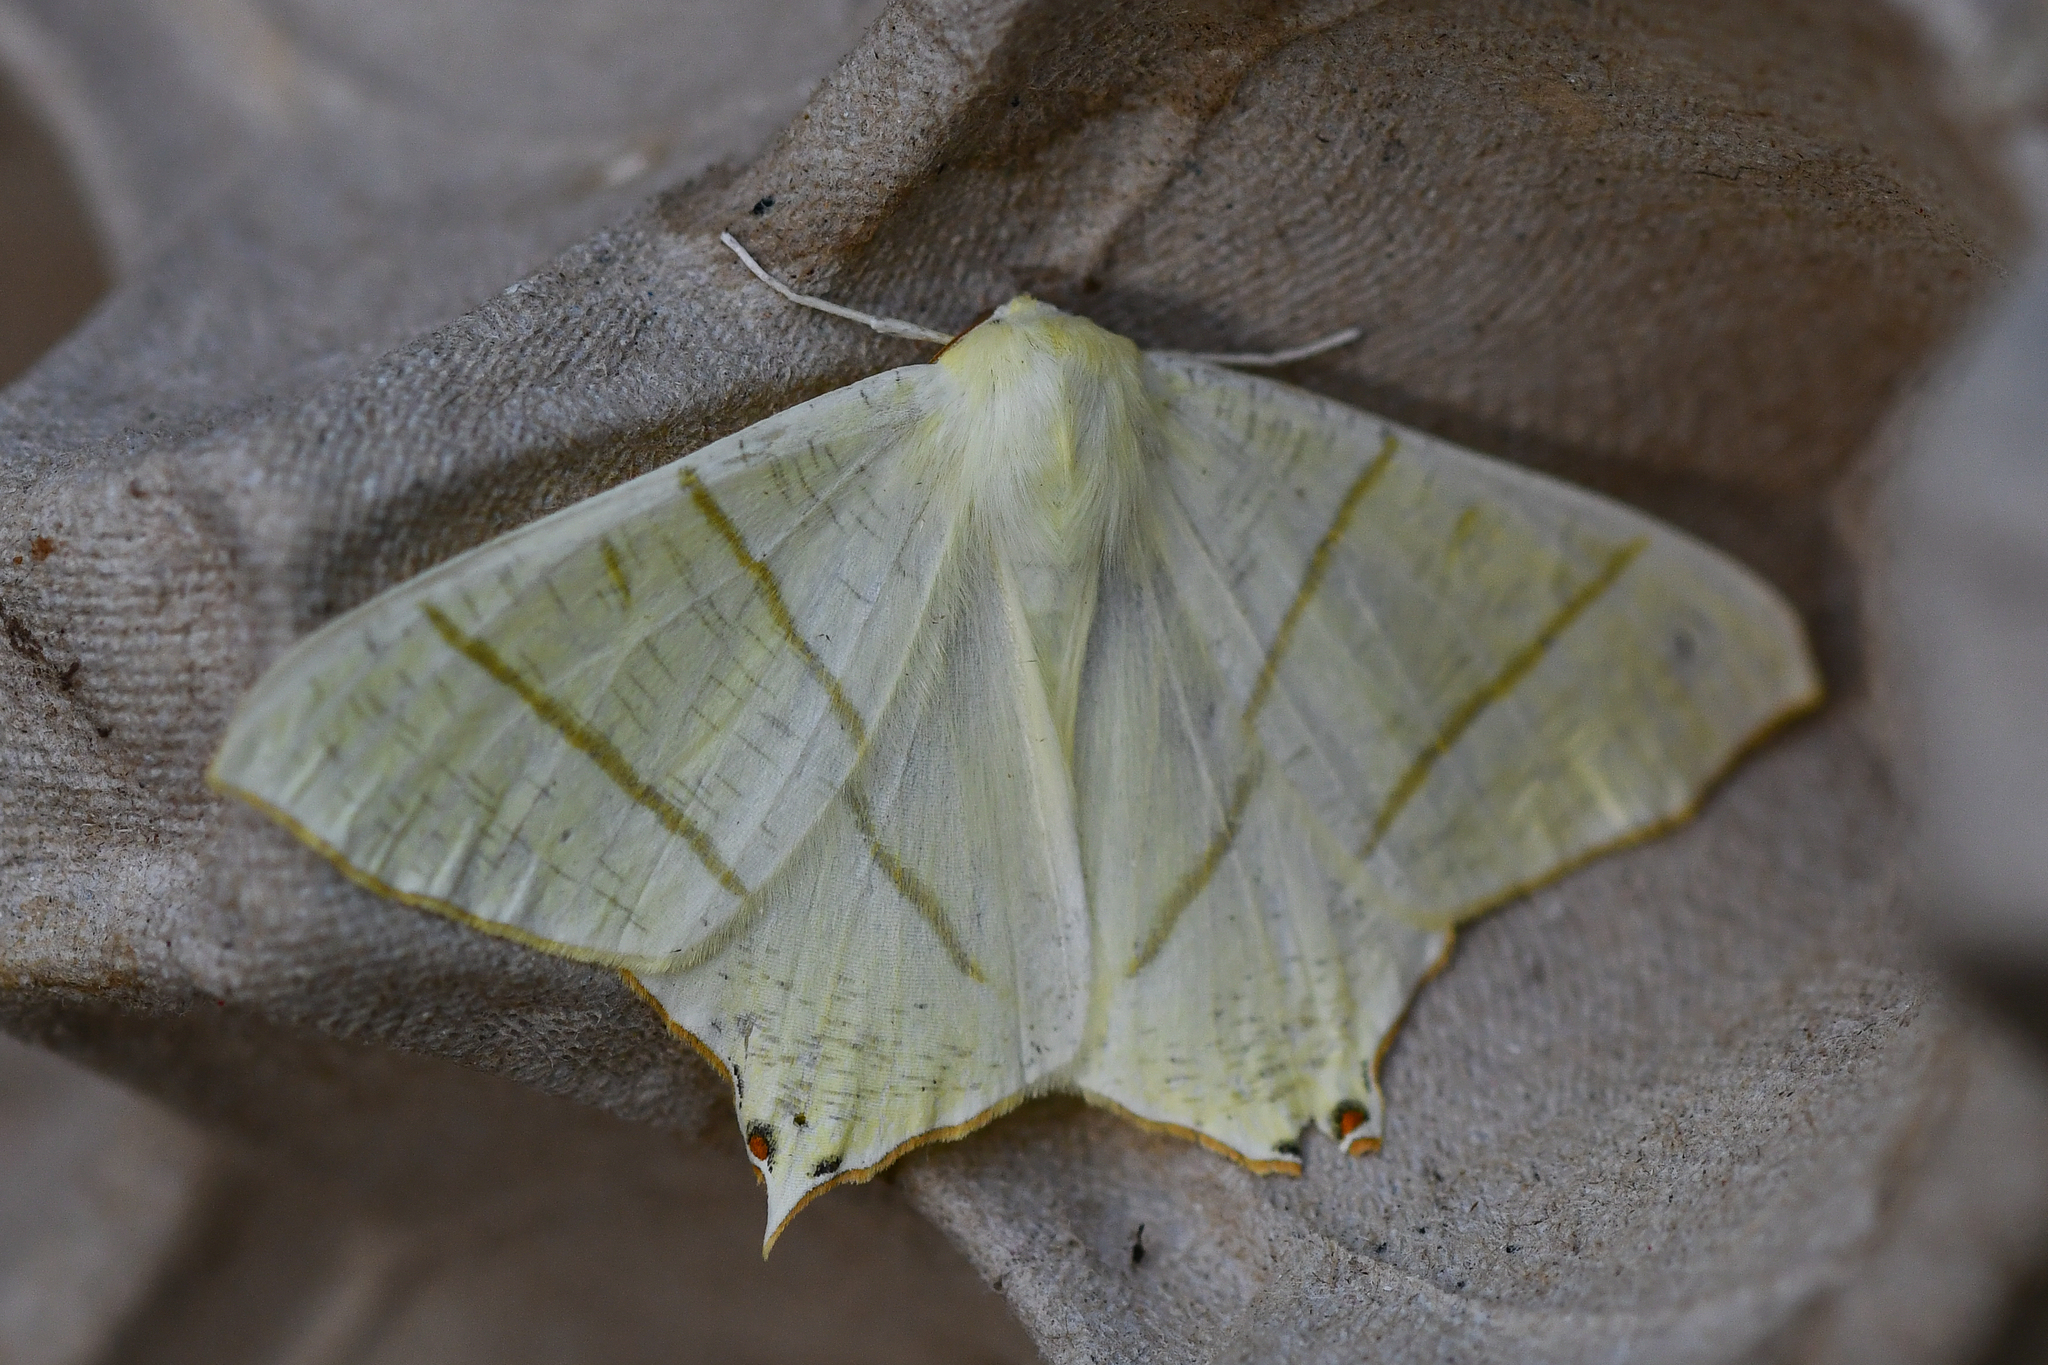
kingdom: Animalia
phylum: Arthropoda
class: Insecta
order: Lepidoptera
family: Geometridae
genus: Ourapteryx
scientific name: Ourapteryx sambucaria
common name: Swallow-tailed moth
